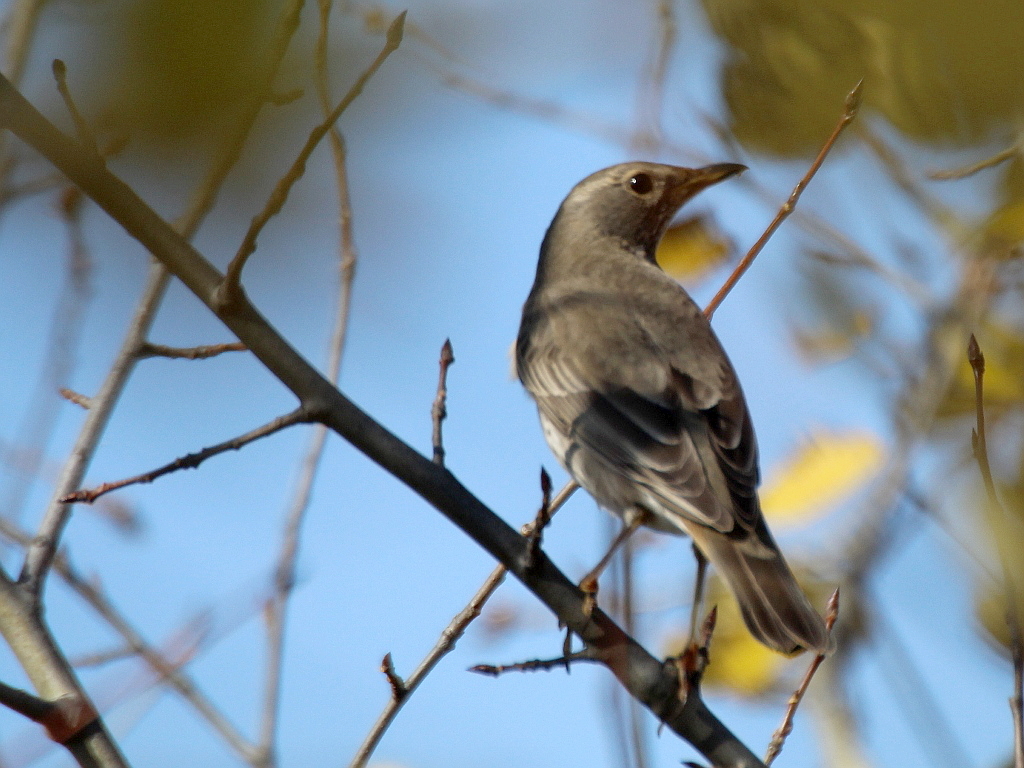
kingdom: Animalia
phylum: Chordata
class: Aves
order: Passeriformes
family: Turdidae
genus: Turdus
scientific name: Turdus atrogularis
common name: Black-throated thrush
